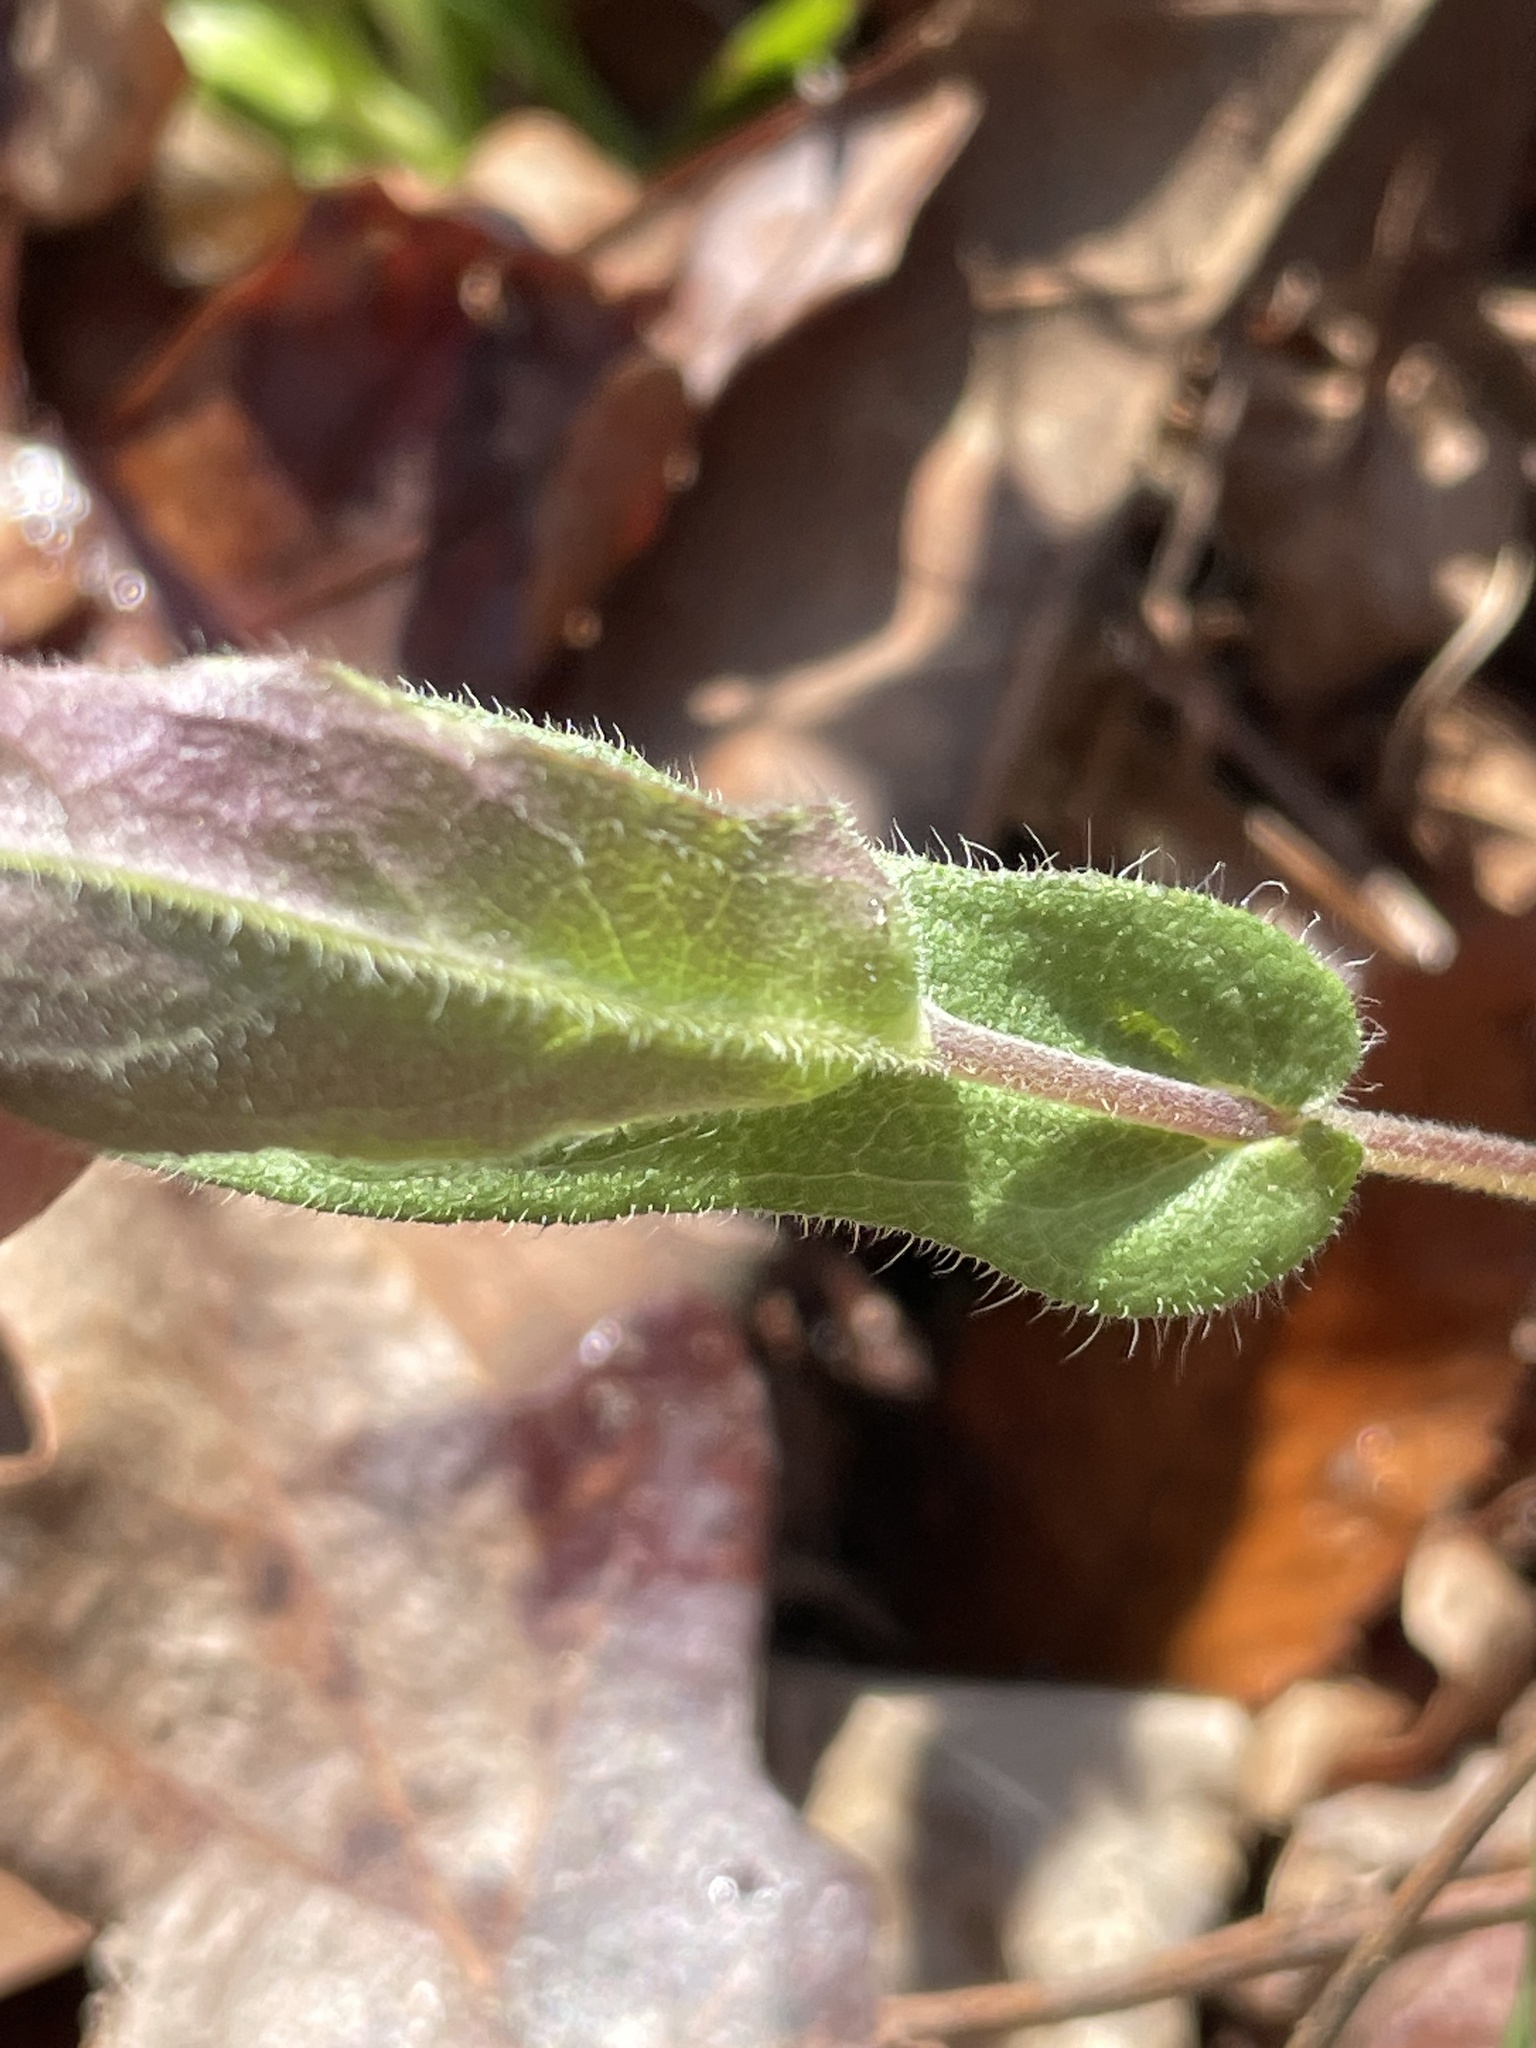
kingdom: Plantae
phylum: Tracheophyta
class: Magnoliopsida
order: Asterales
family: Asteraceae
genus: Symphyotrichum
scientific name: Symphyotrichum patens
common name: Late purple aster
